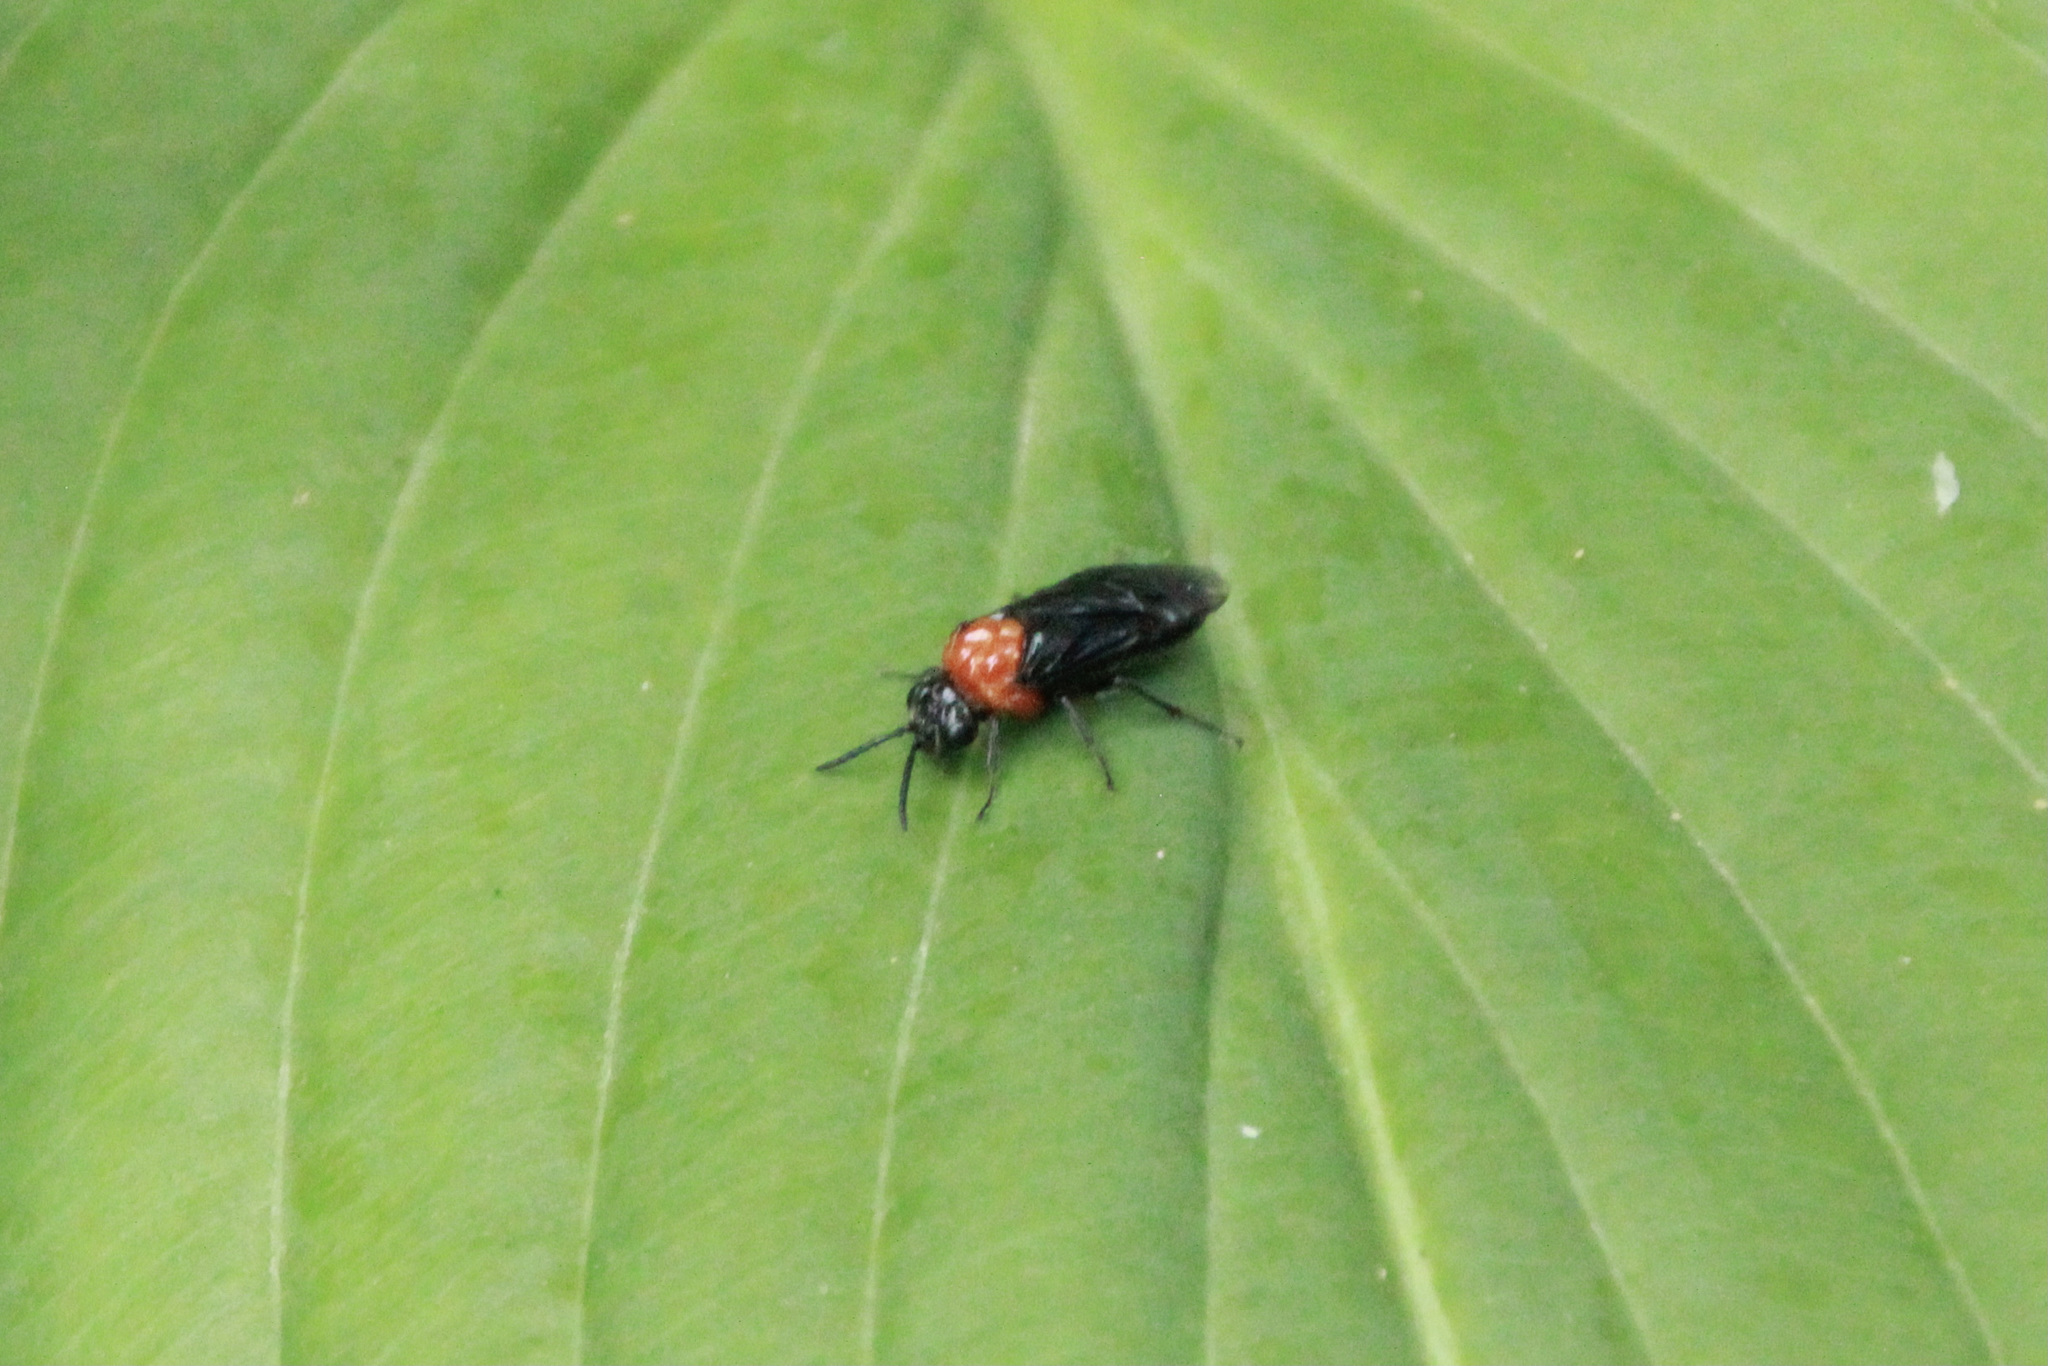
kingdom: Animalia
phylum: Arthropoda
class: Insecta
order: Hymenoptera
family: Tenthredinidae
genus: Tethida
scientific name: Tethida barda
